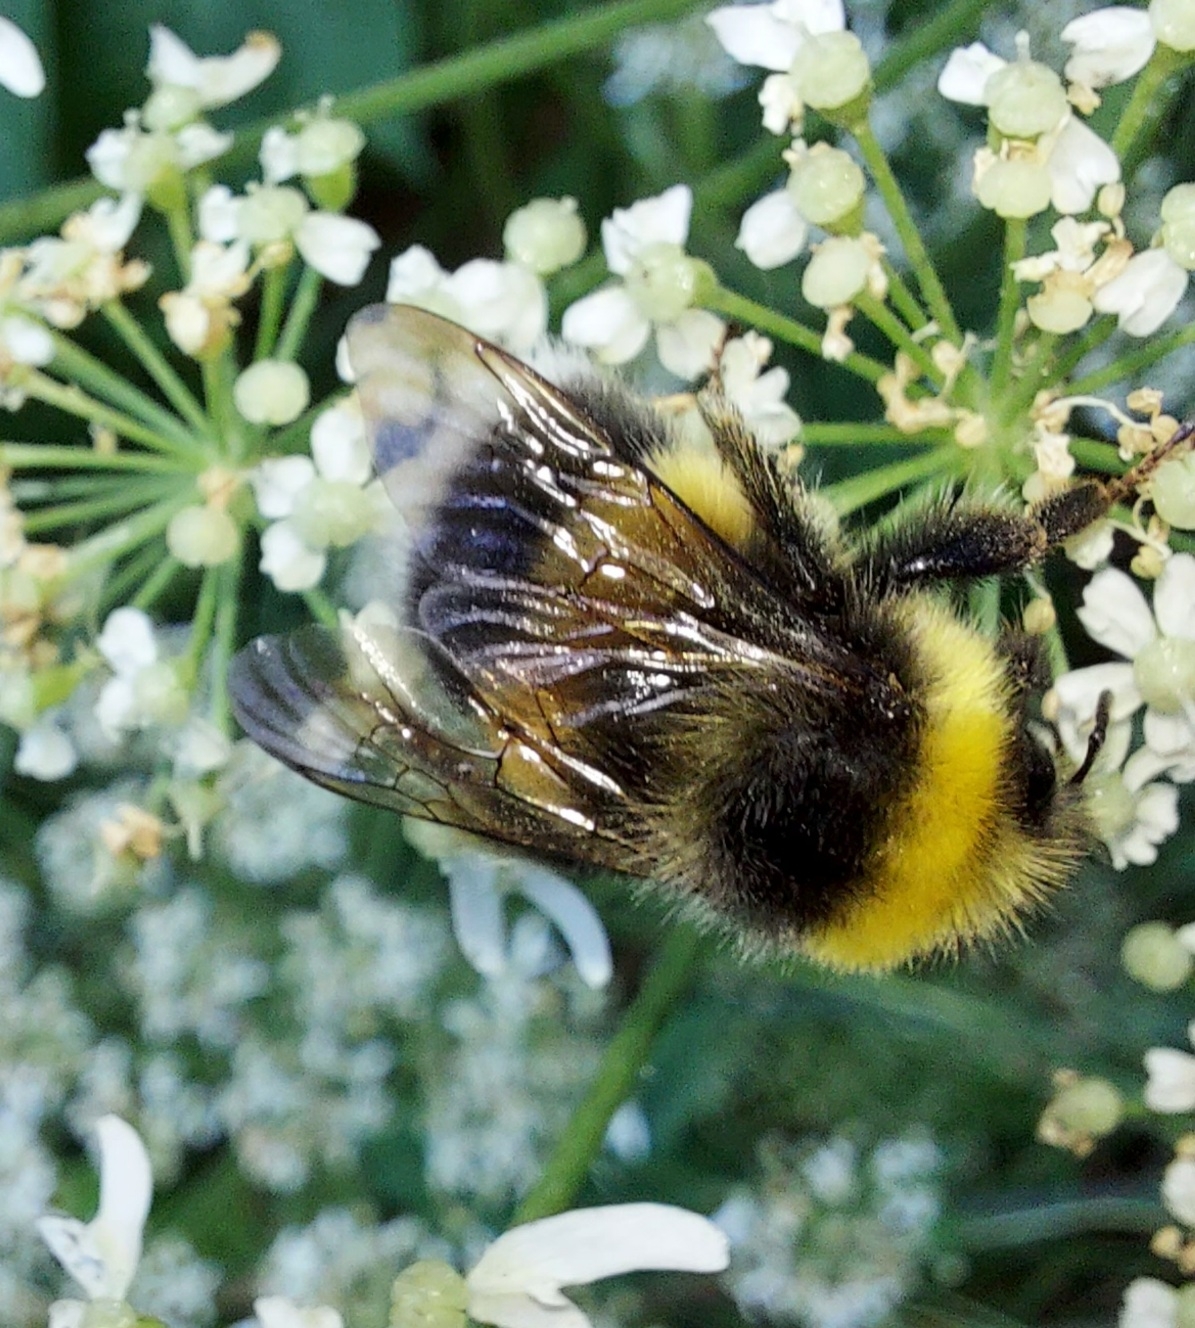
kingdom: Animalia
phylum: Arthropoda
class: Insecta
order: Hymenoptera
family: Apidae
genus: Bombus
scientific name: Bombus lucorum
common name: White-tailed bumblebee
